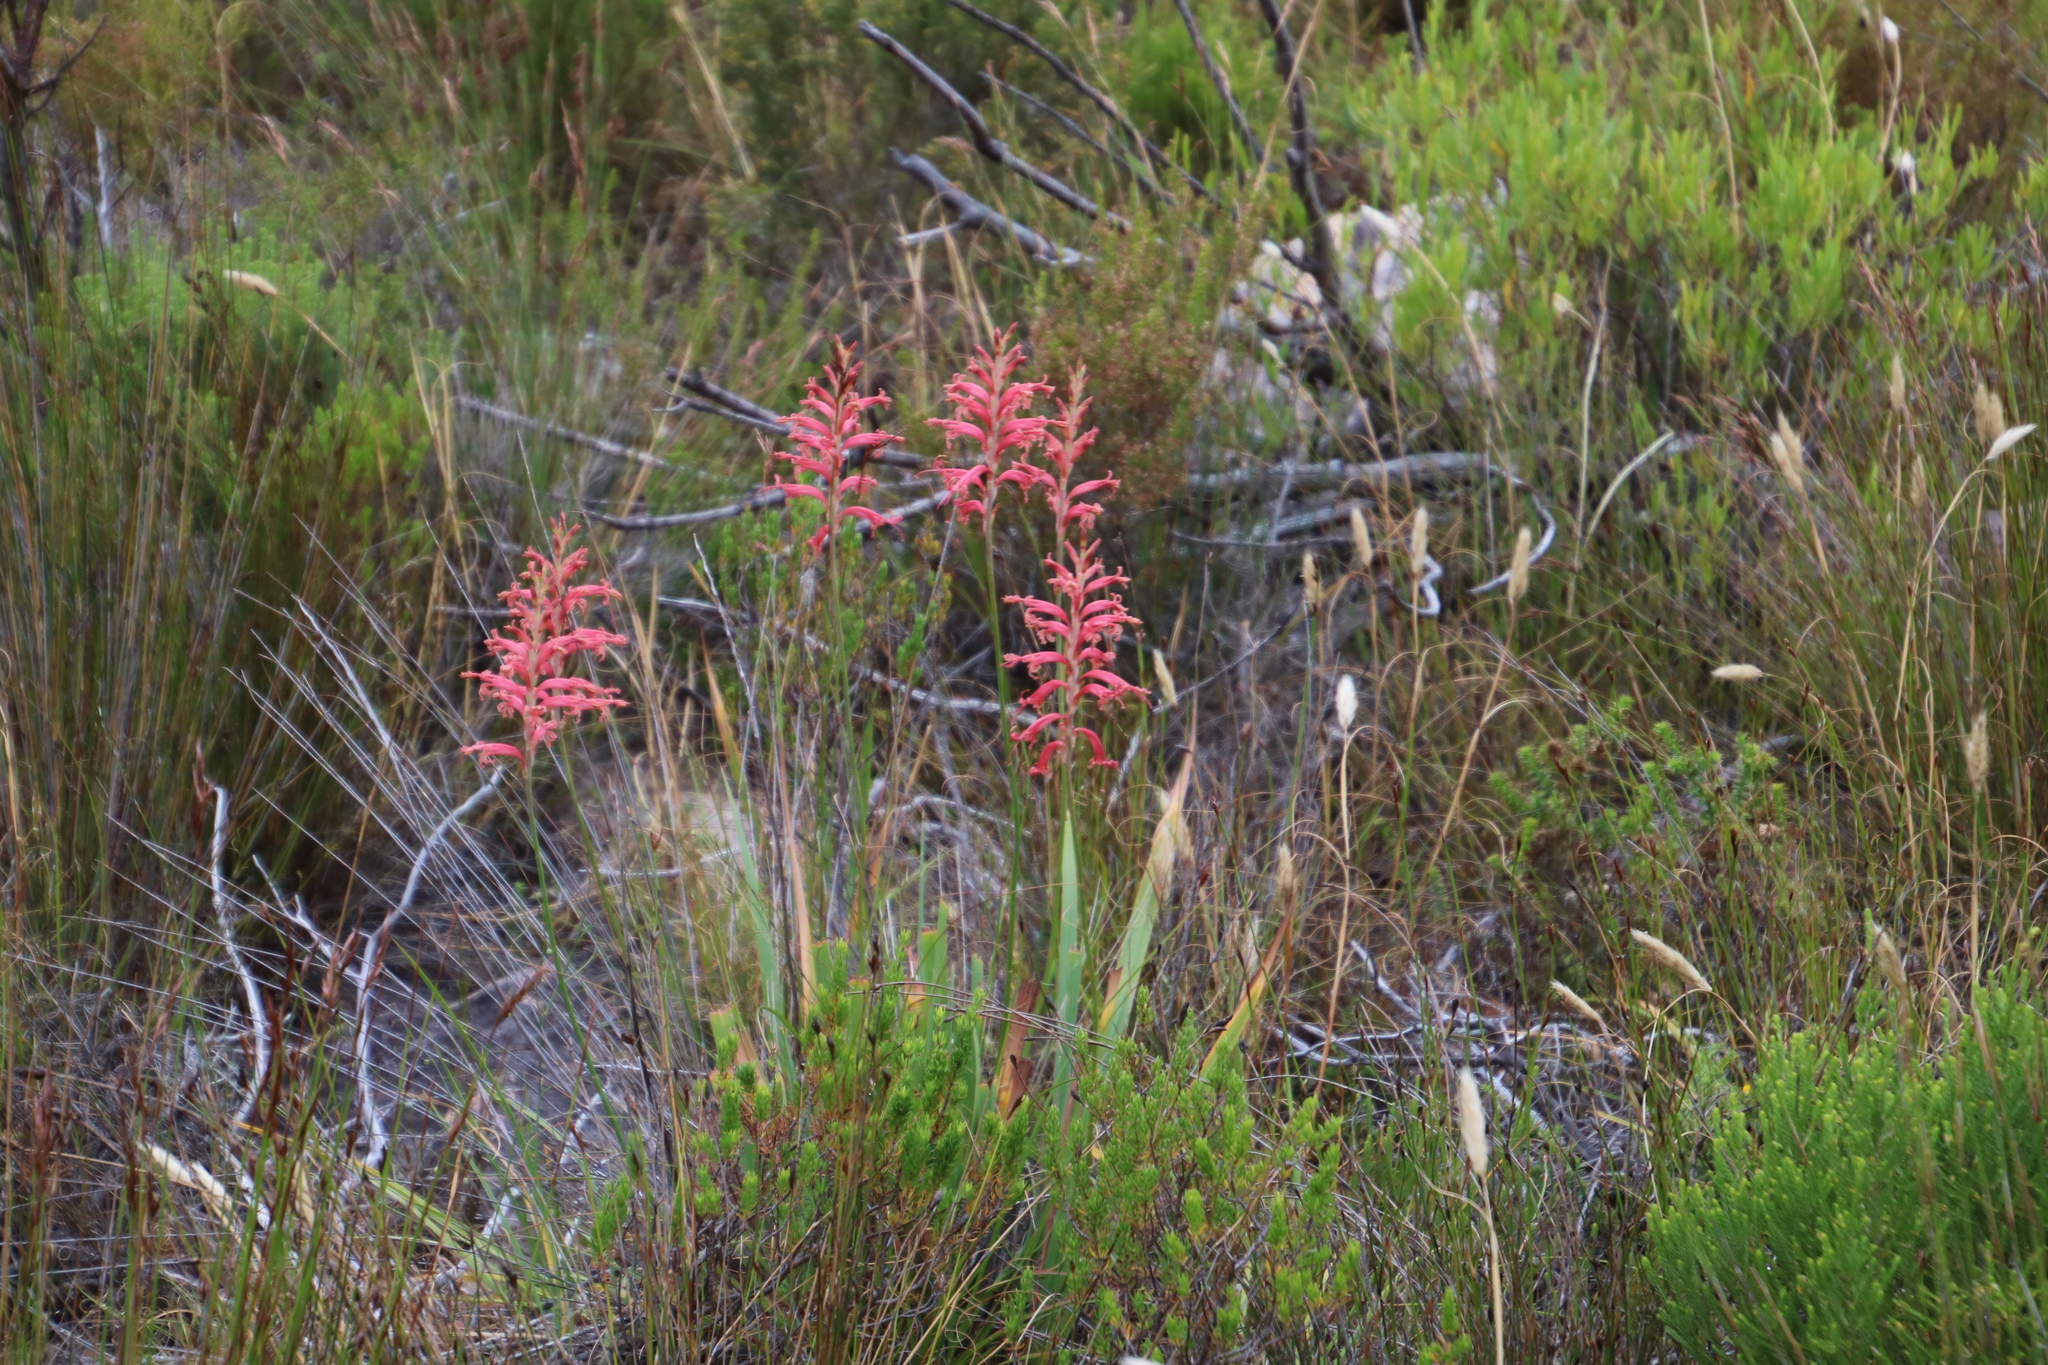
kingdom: Plantae
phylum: Tracheophyta
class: Liliopsida
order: Asparagales
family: Iridaceae
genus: Tritoniopsis
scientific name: Tritoniopsis antholyza
